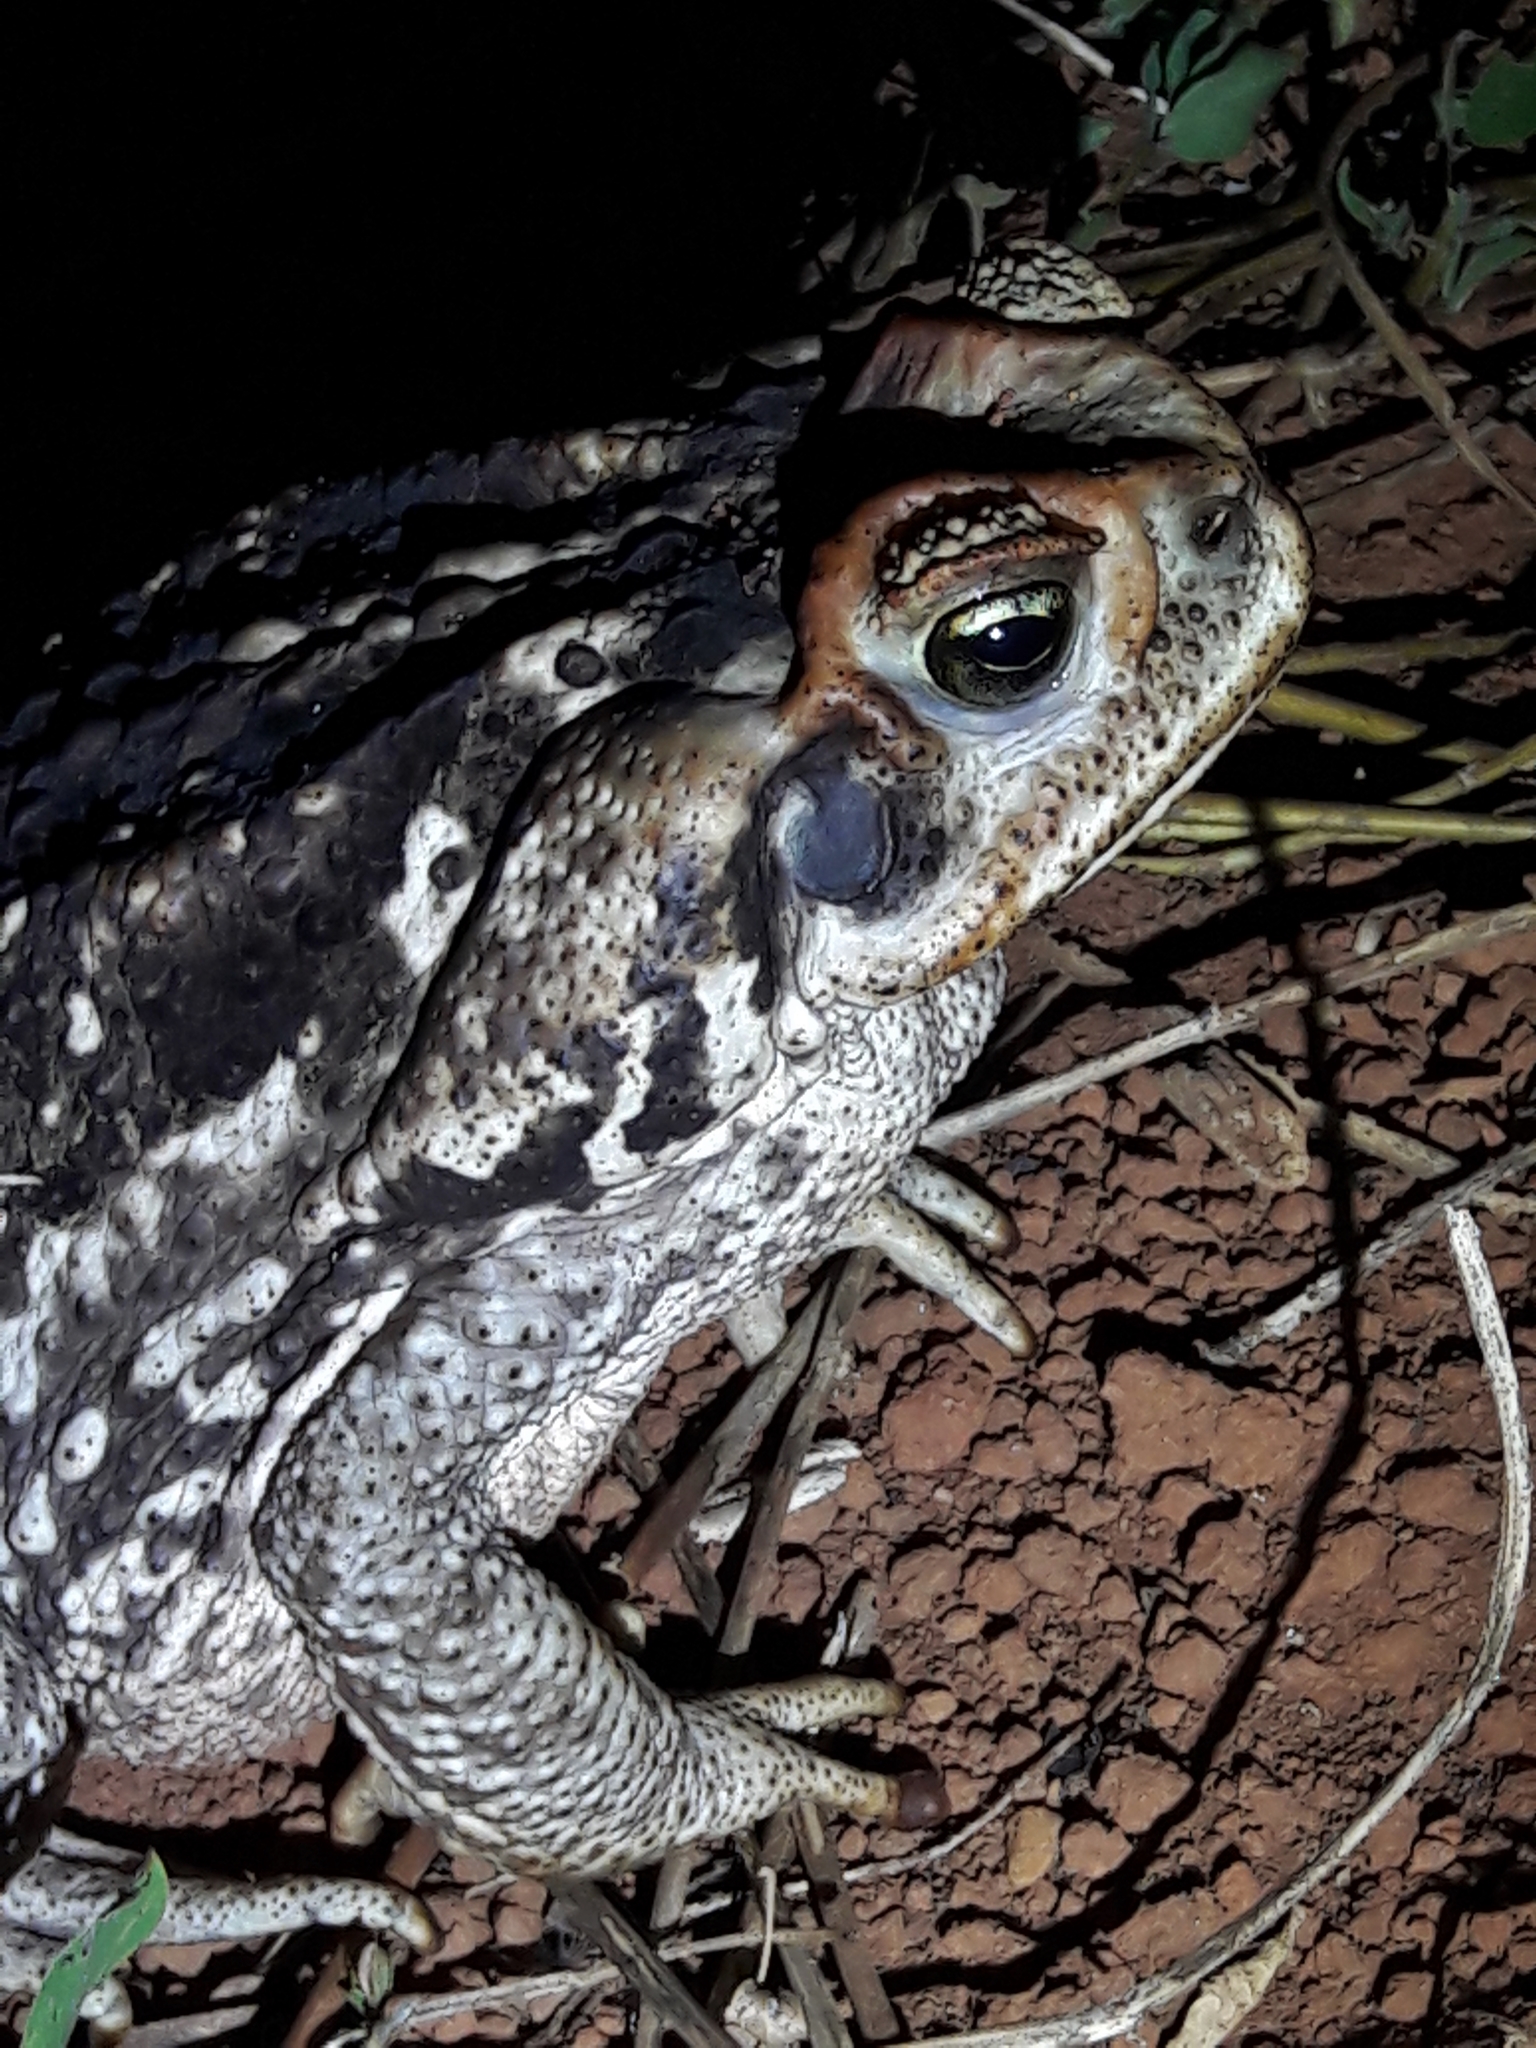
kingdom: Animalia
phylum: Chordata
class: Amphibia
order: Anura
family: Bufonidae
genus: Rhinella
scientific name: Rhinella diptycha
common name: Cope's toad
